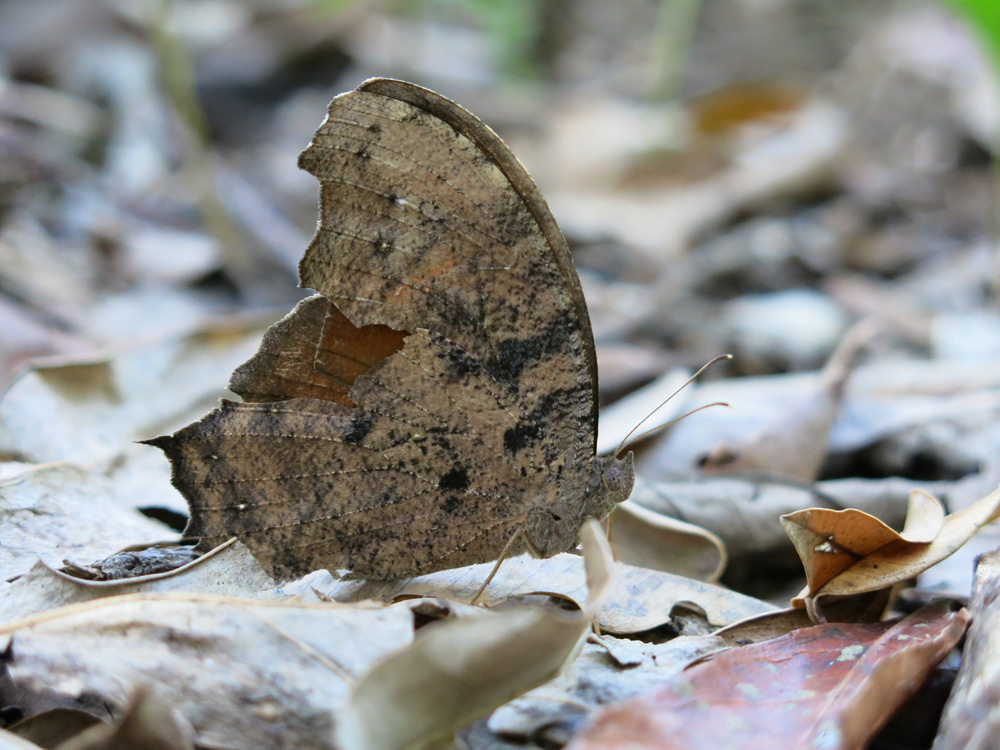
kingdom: Animalia
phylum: Arthropoda
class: Insecta
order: Lepidoptera
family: Nymphalidae
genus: Melanitis
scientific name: Melanitis leda
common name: Twilight brown
